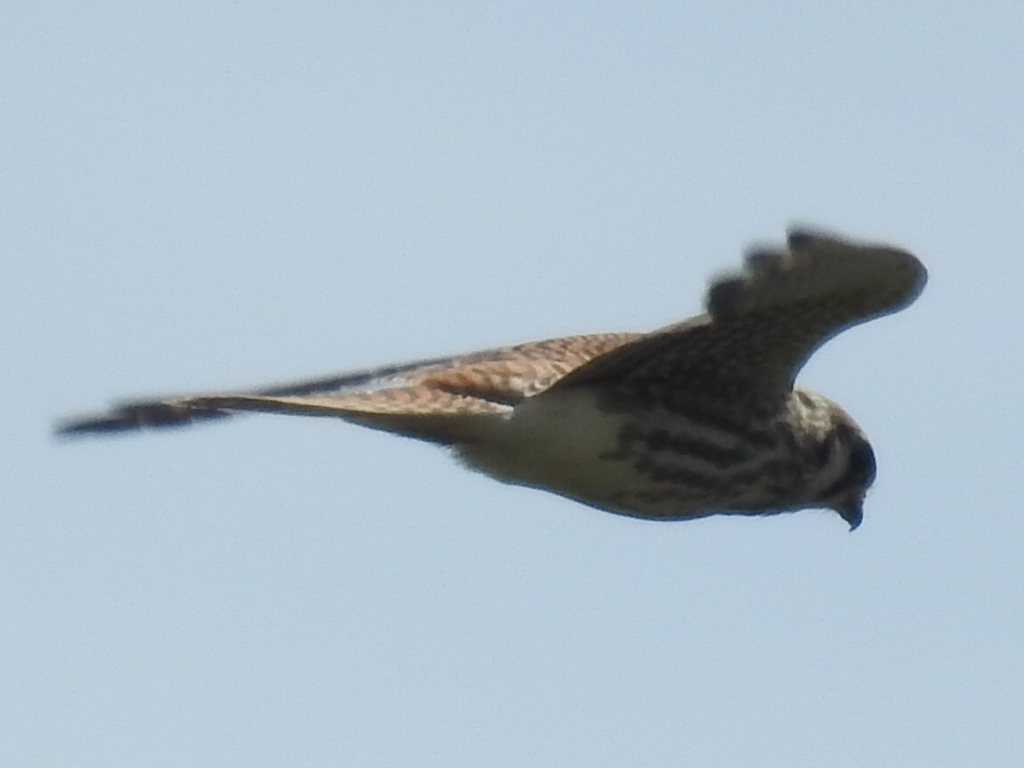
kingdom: Animalia
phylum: Chordata
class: Aves
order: Falconiformes
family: Falconidae
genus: Falco
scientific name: Falco sparverius
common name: American kestrel
